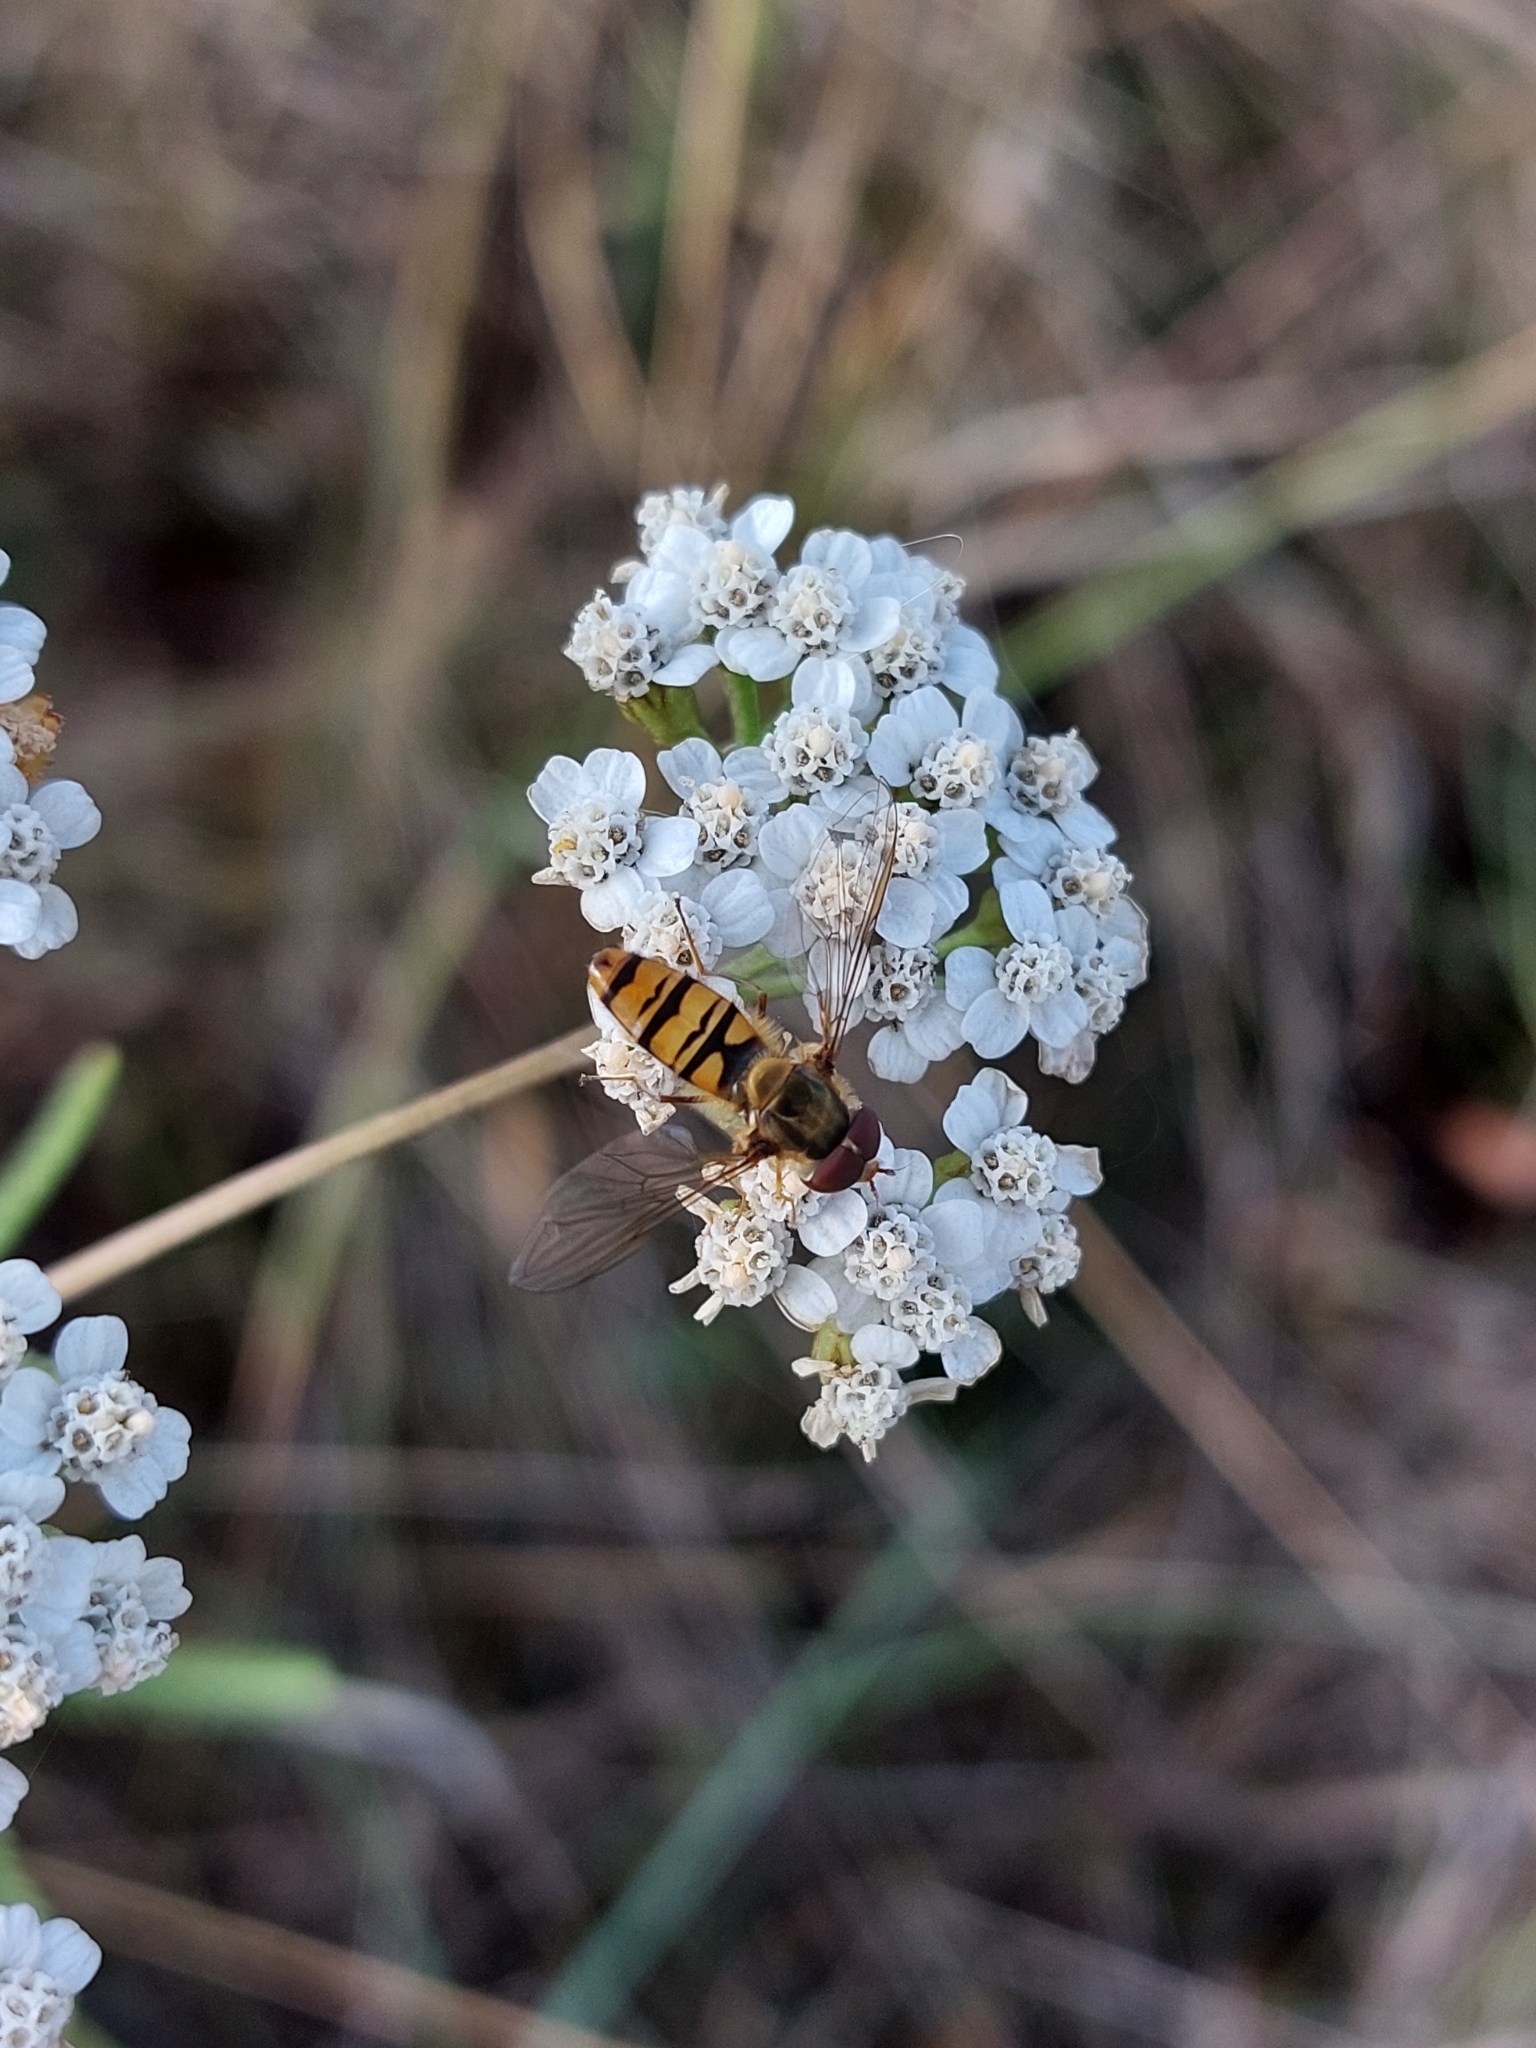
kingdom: Animalia
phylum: Arthropoda
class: Insecta
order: Diptera
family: Syrphidae
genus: Episyrphus
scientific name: Episyrphus balteatus
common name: Marmalade hoverfly
